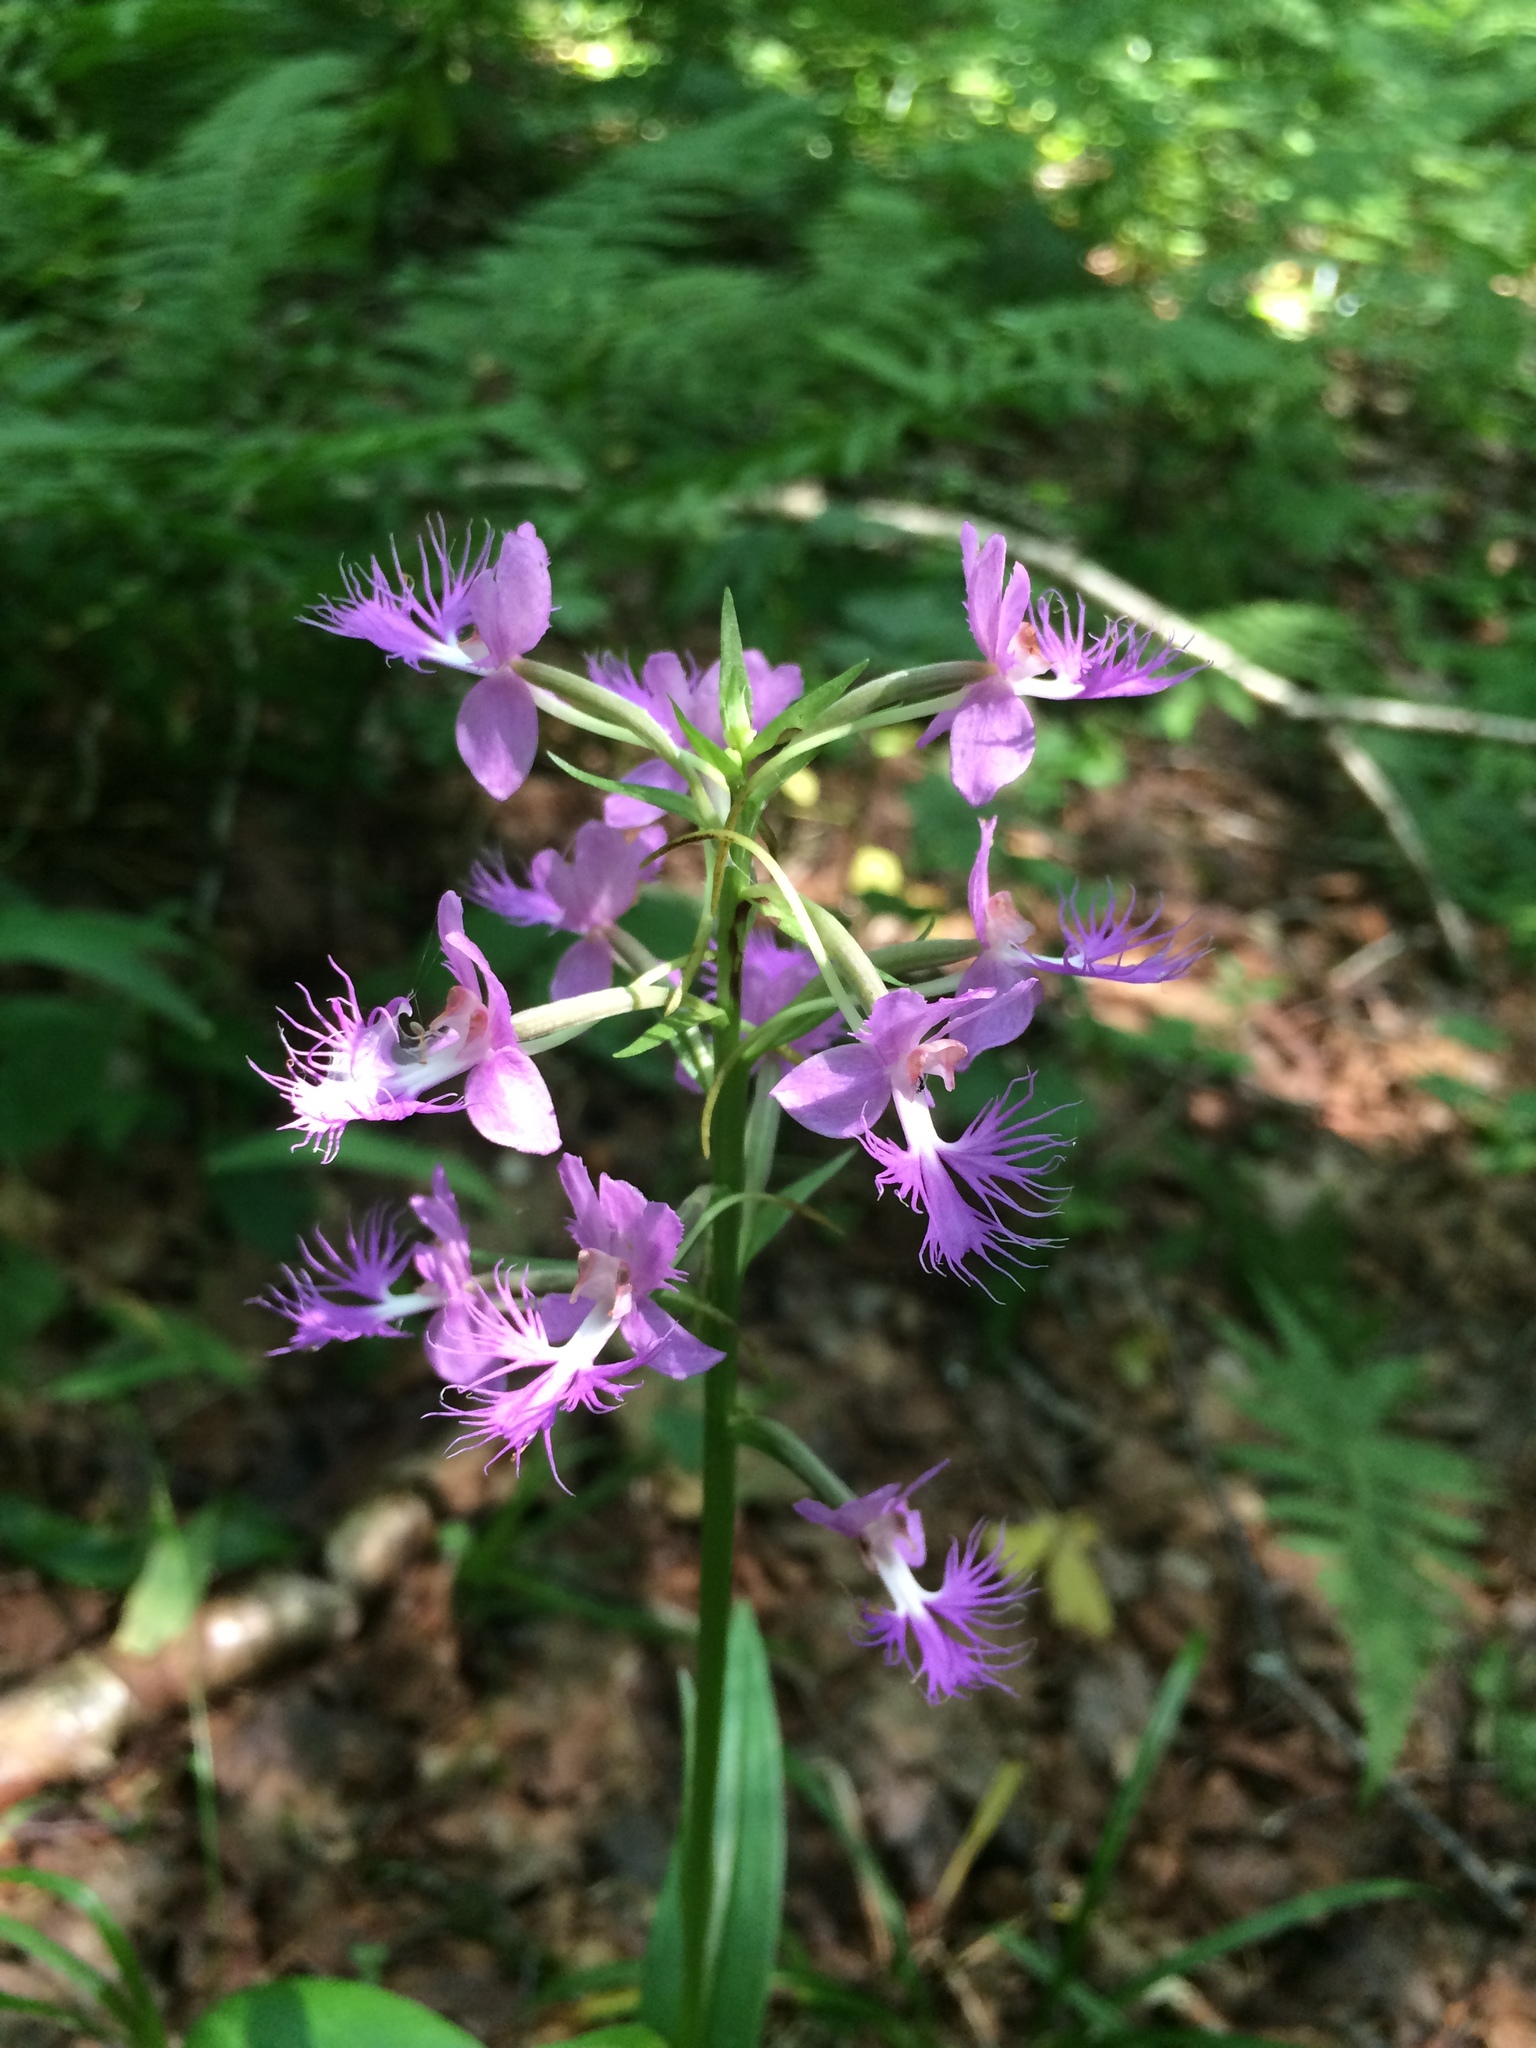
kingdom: Plantae
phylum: Tracheophyta
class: Liliopsida
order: Asparagales
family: Orchidaceae
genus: Platanthera
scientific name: Platanthera grandiflora
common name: Greater purple fringed orchid
